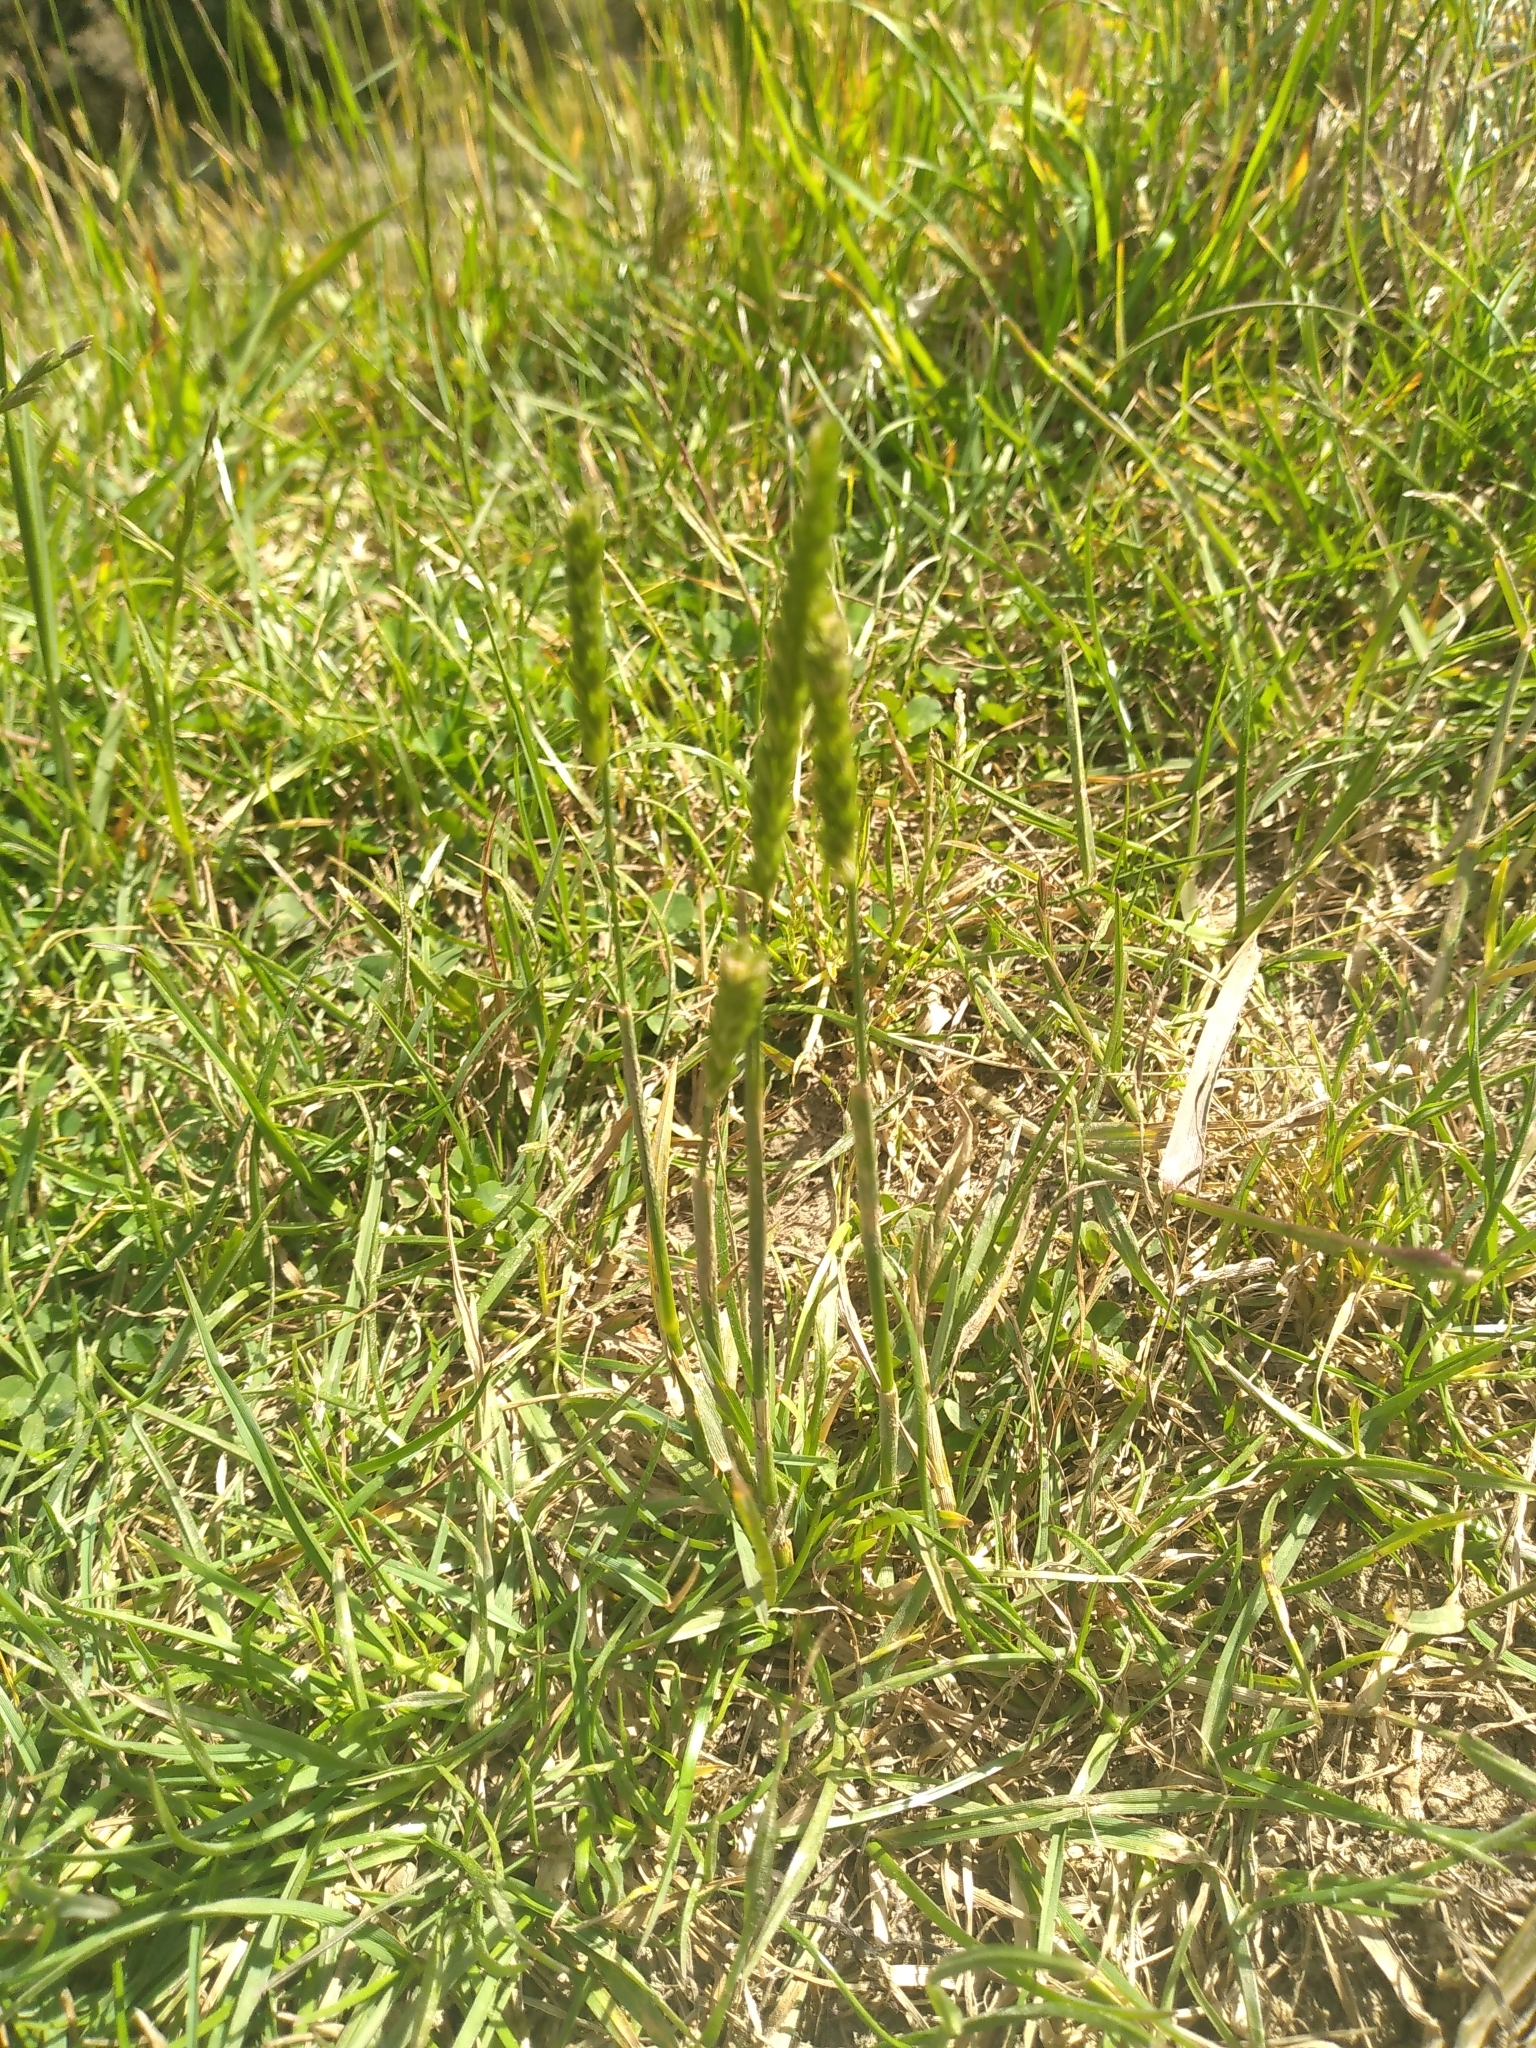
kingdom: Plantae
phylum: Tracheophyta
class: Liliopsida
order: Poales
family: Poaceae
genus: Cynosurus
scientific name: Cynosurus cristatus
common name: Crested dog's-tail
